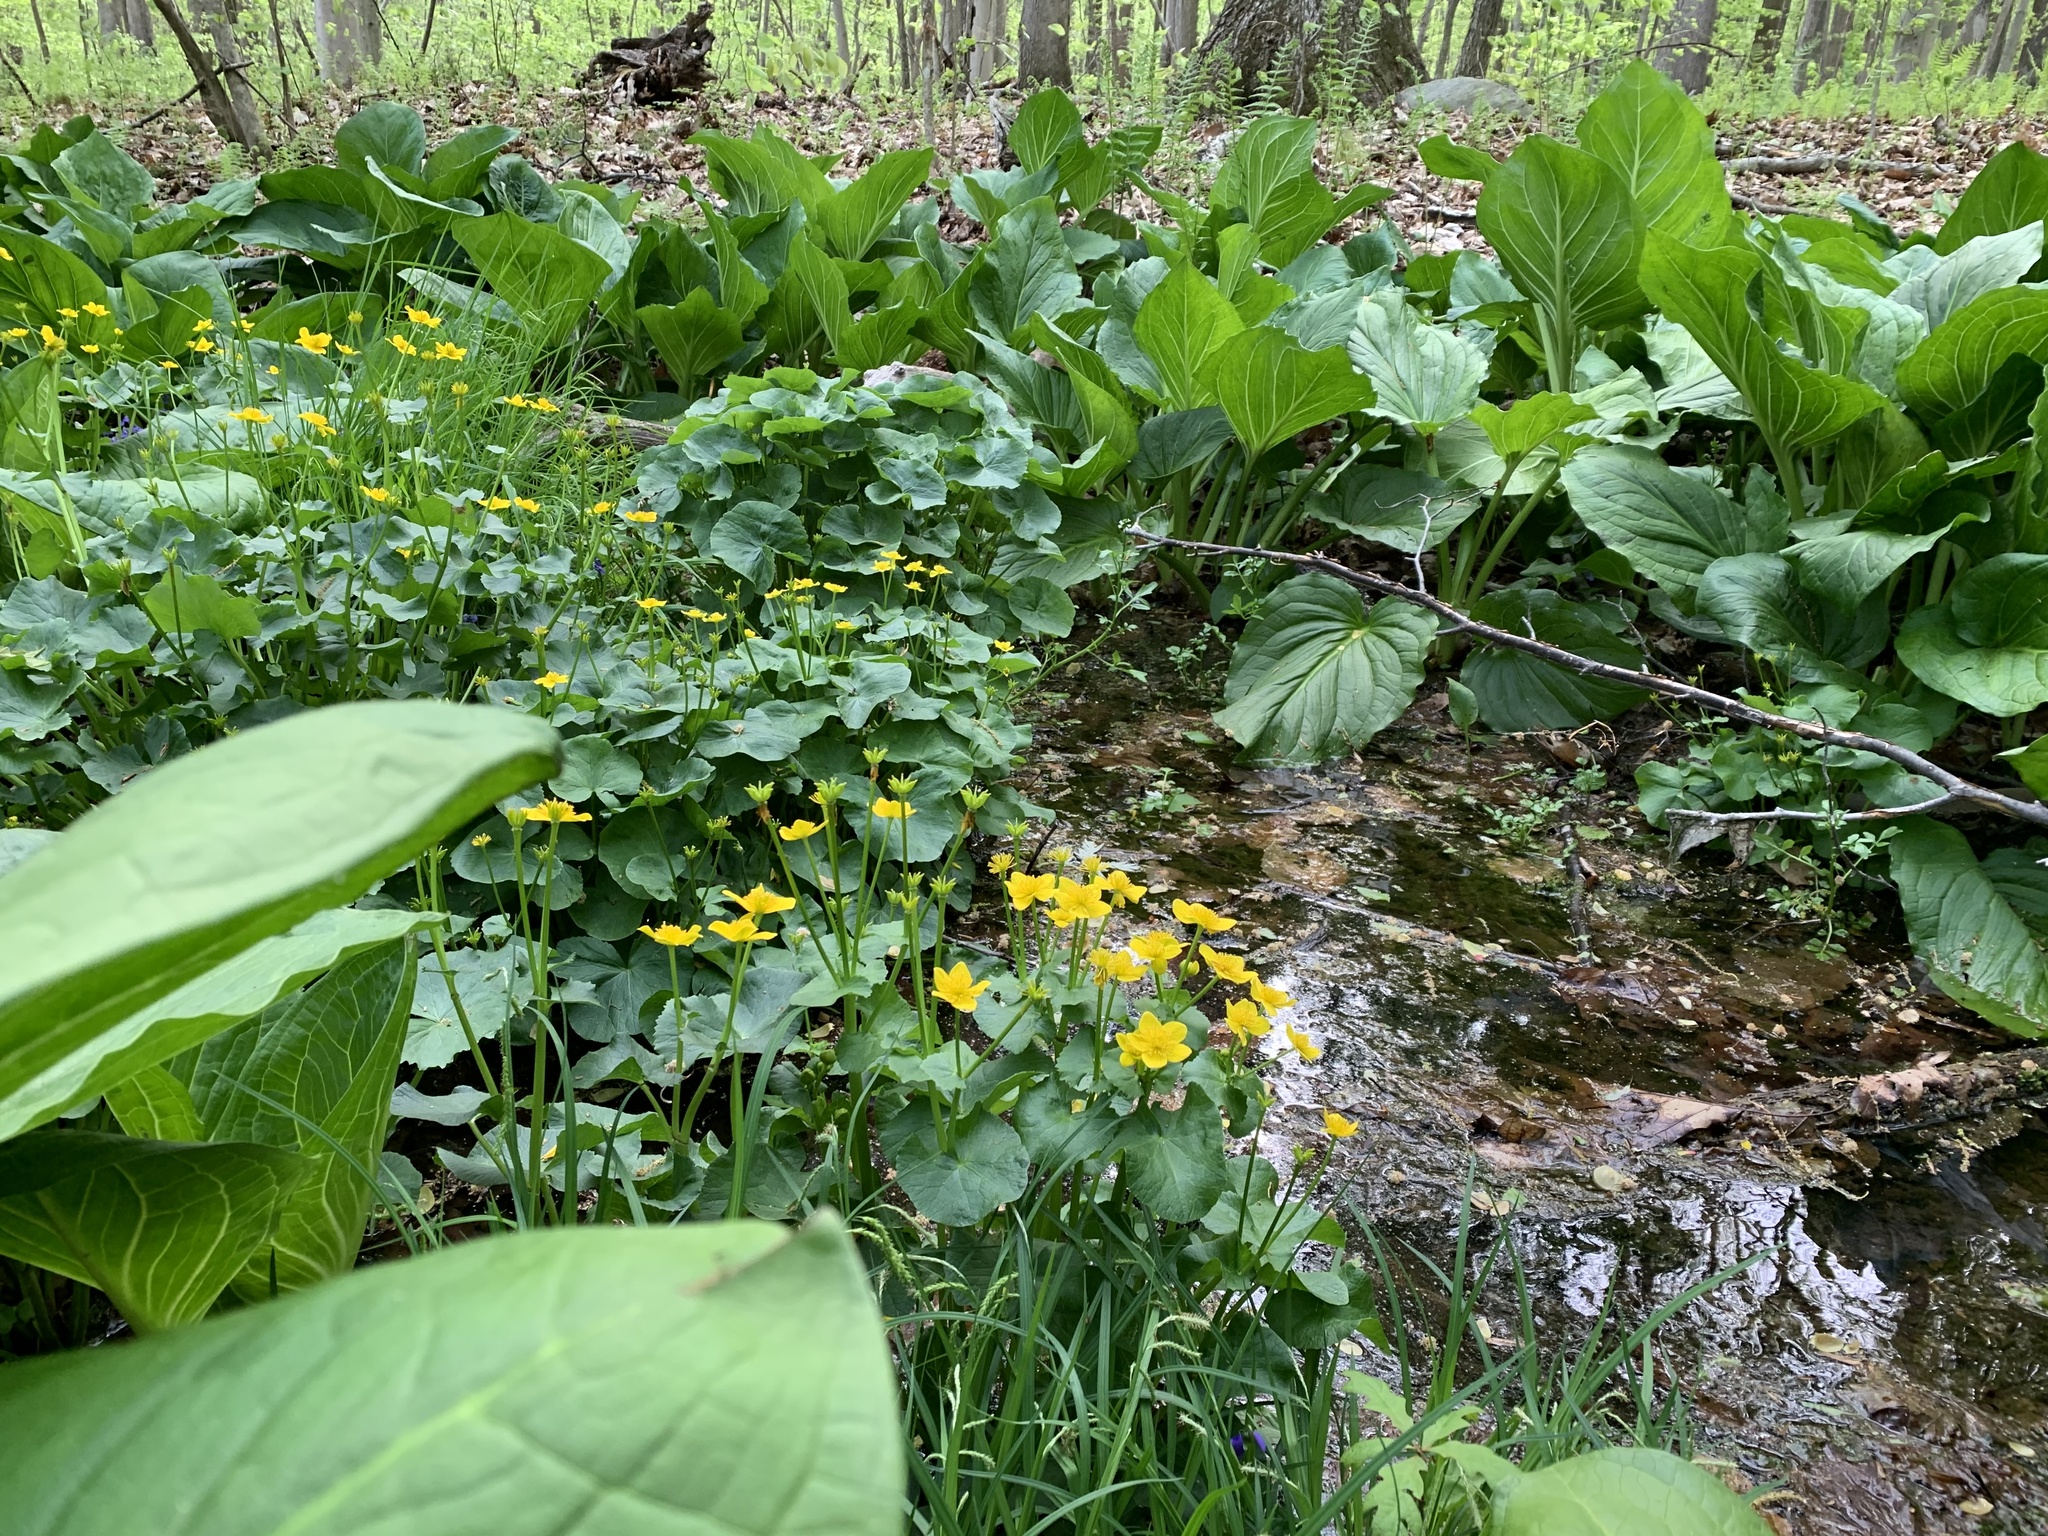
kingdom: Plantae
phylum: Tracheophyta
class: Magnoliopsida
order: Ranunculales
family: Ranunculaceae
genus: Caltha
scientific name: Caltha palustris
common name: Marsh marigold
